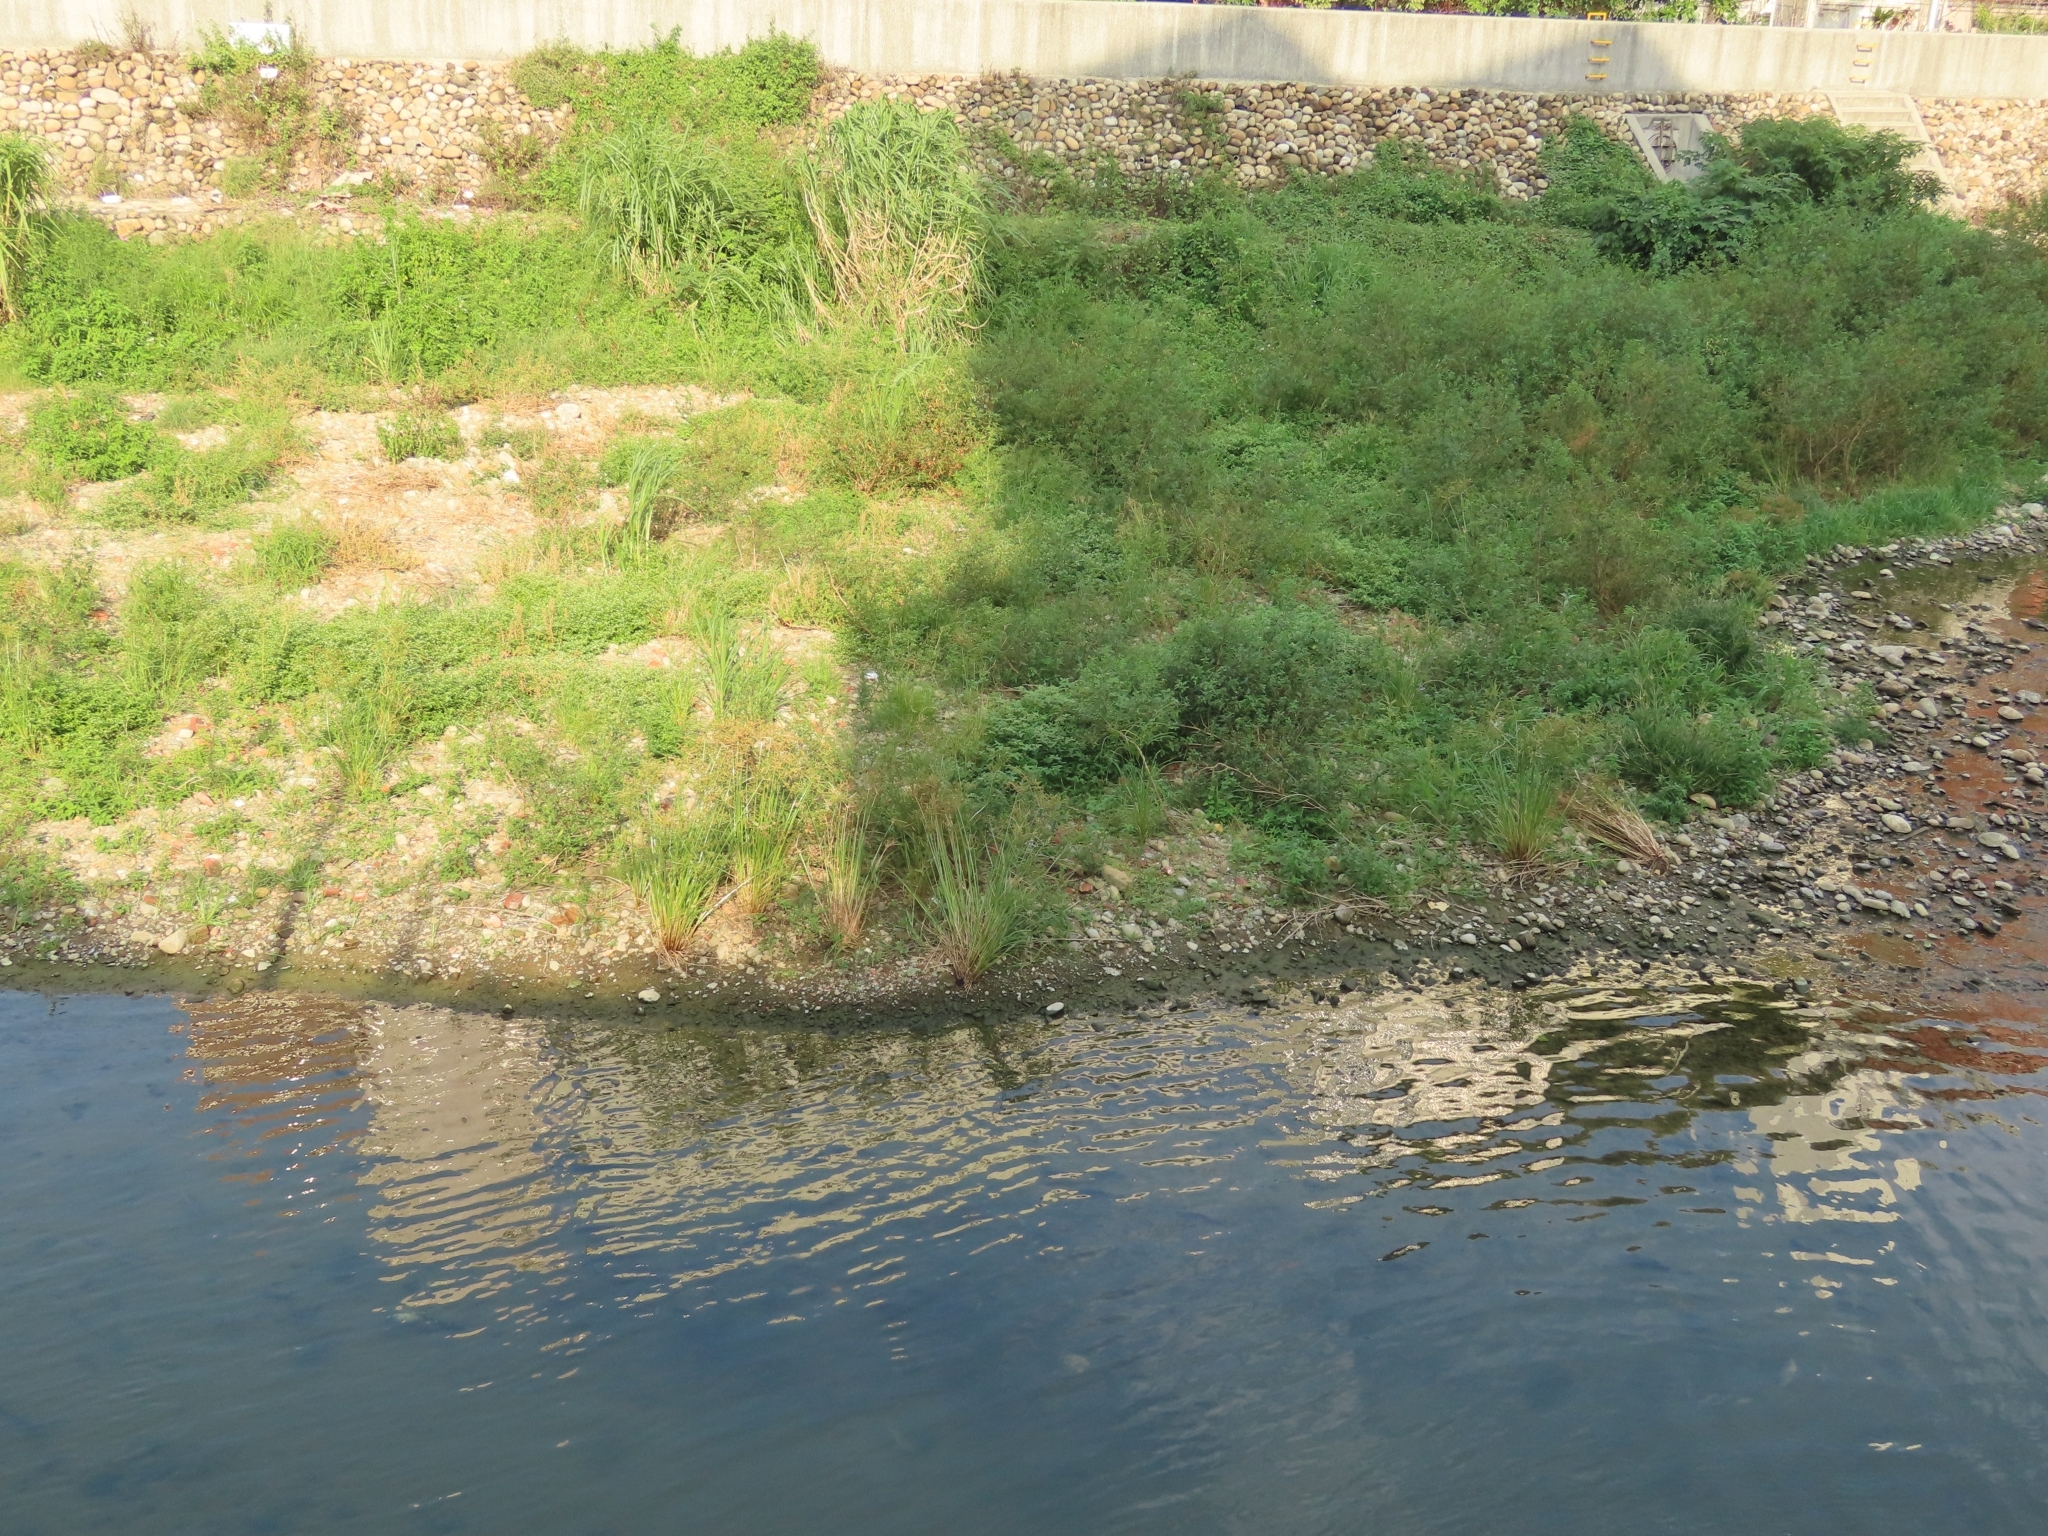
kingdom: Plantae
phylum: Tracheophyta
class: Liliopsida
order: Poales
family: Cyperaceae
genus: Cyperus
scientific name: Cyperus imbricatus
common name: Shingle flatsedge
